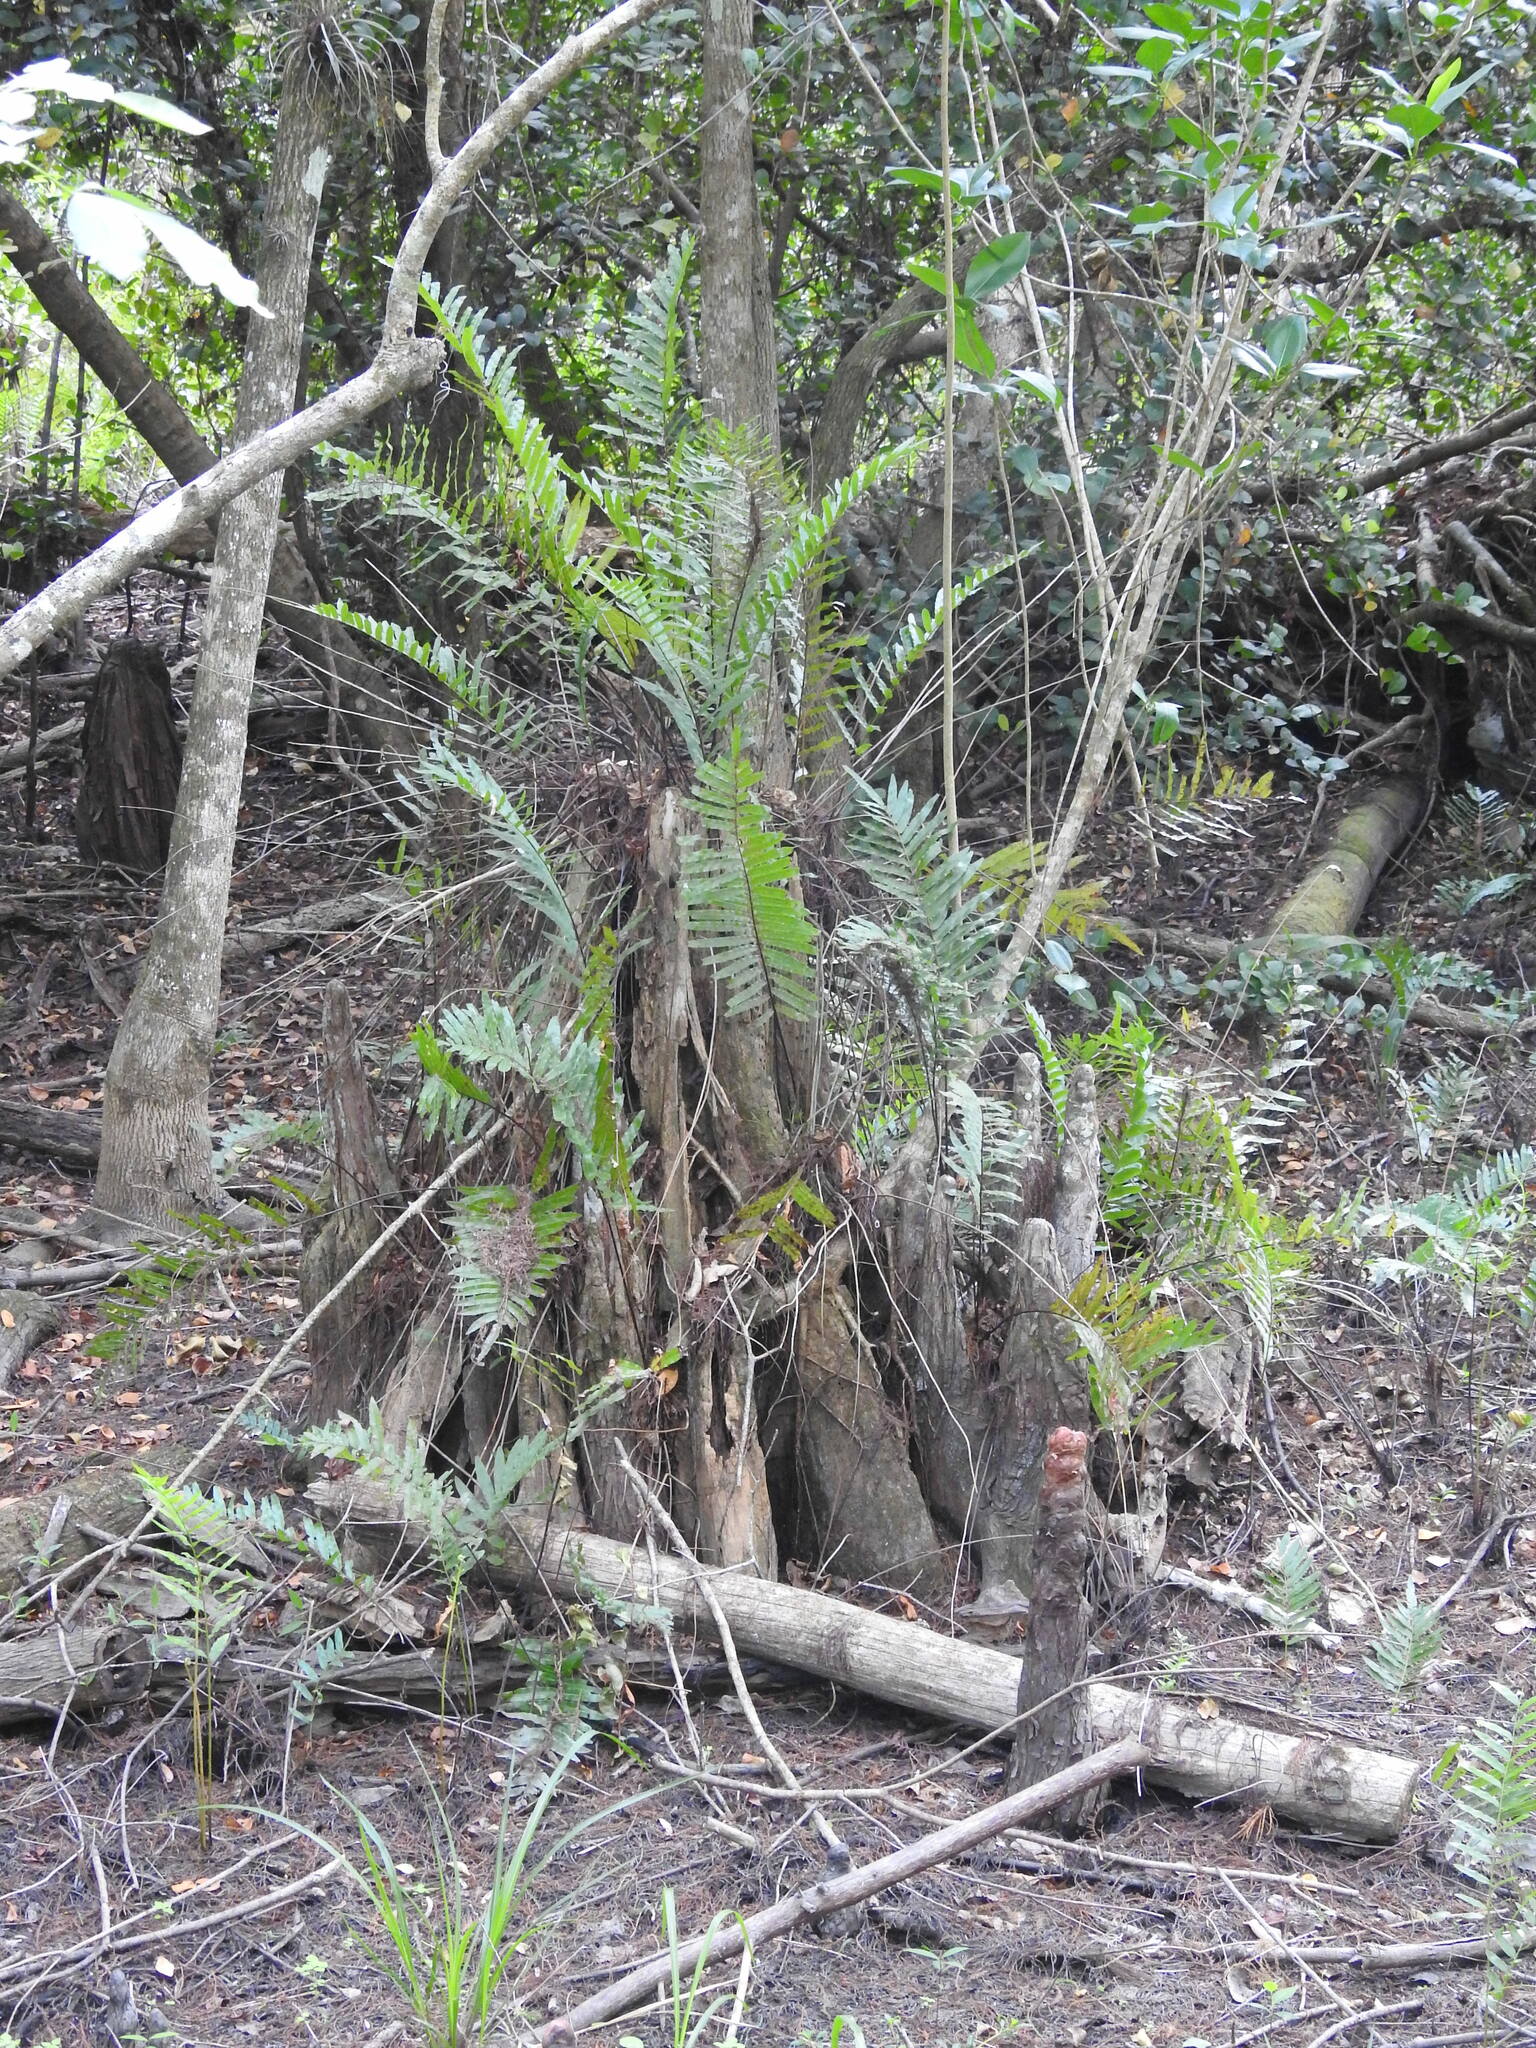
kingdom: Plantae
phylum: Tracheophyta
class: Polypodiopsida
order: Polypodiales
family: Blechnaceae
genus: Telmatoblechnum
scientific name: Telmatoblechnum serrulatum
